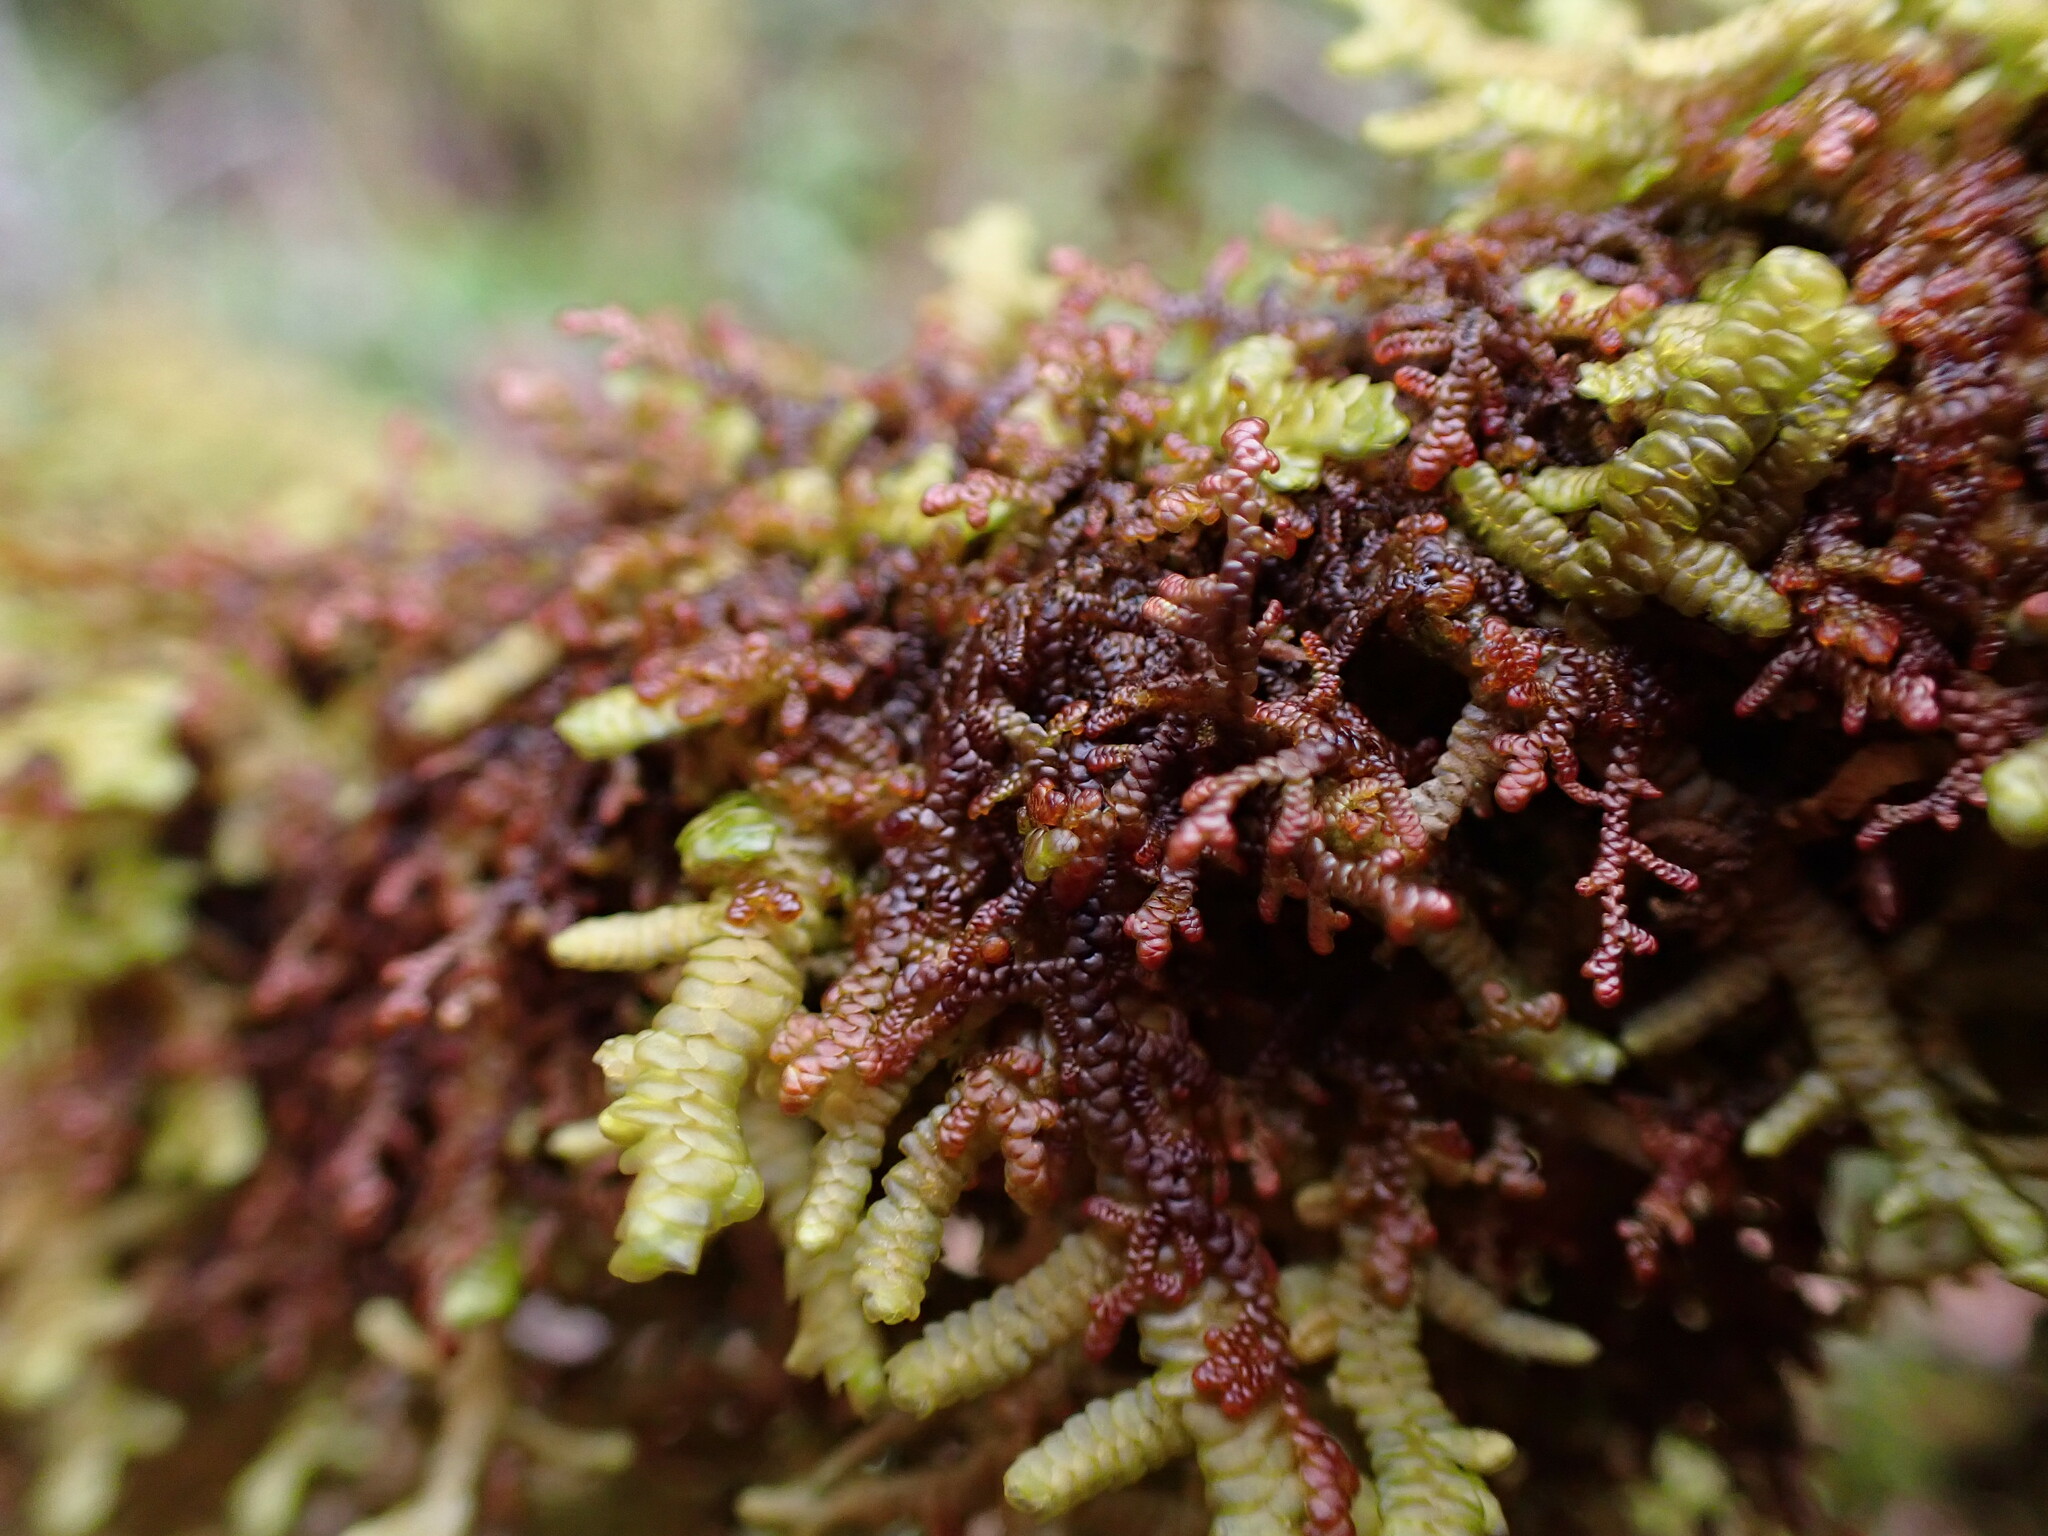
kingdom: Plantae
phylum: Marchantiophyta
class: Jungermanniopsida
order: Porellales
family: Frullaniaceae
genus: Frullania
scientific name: Frullania nisquallensis
